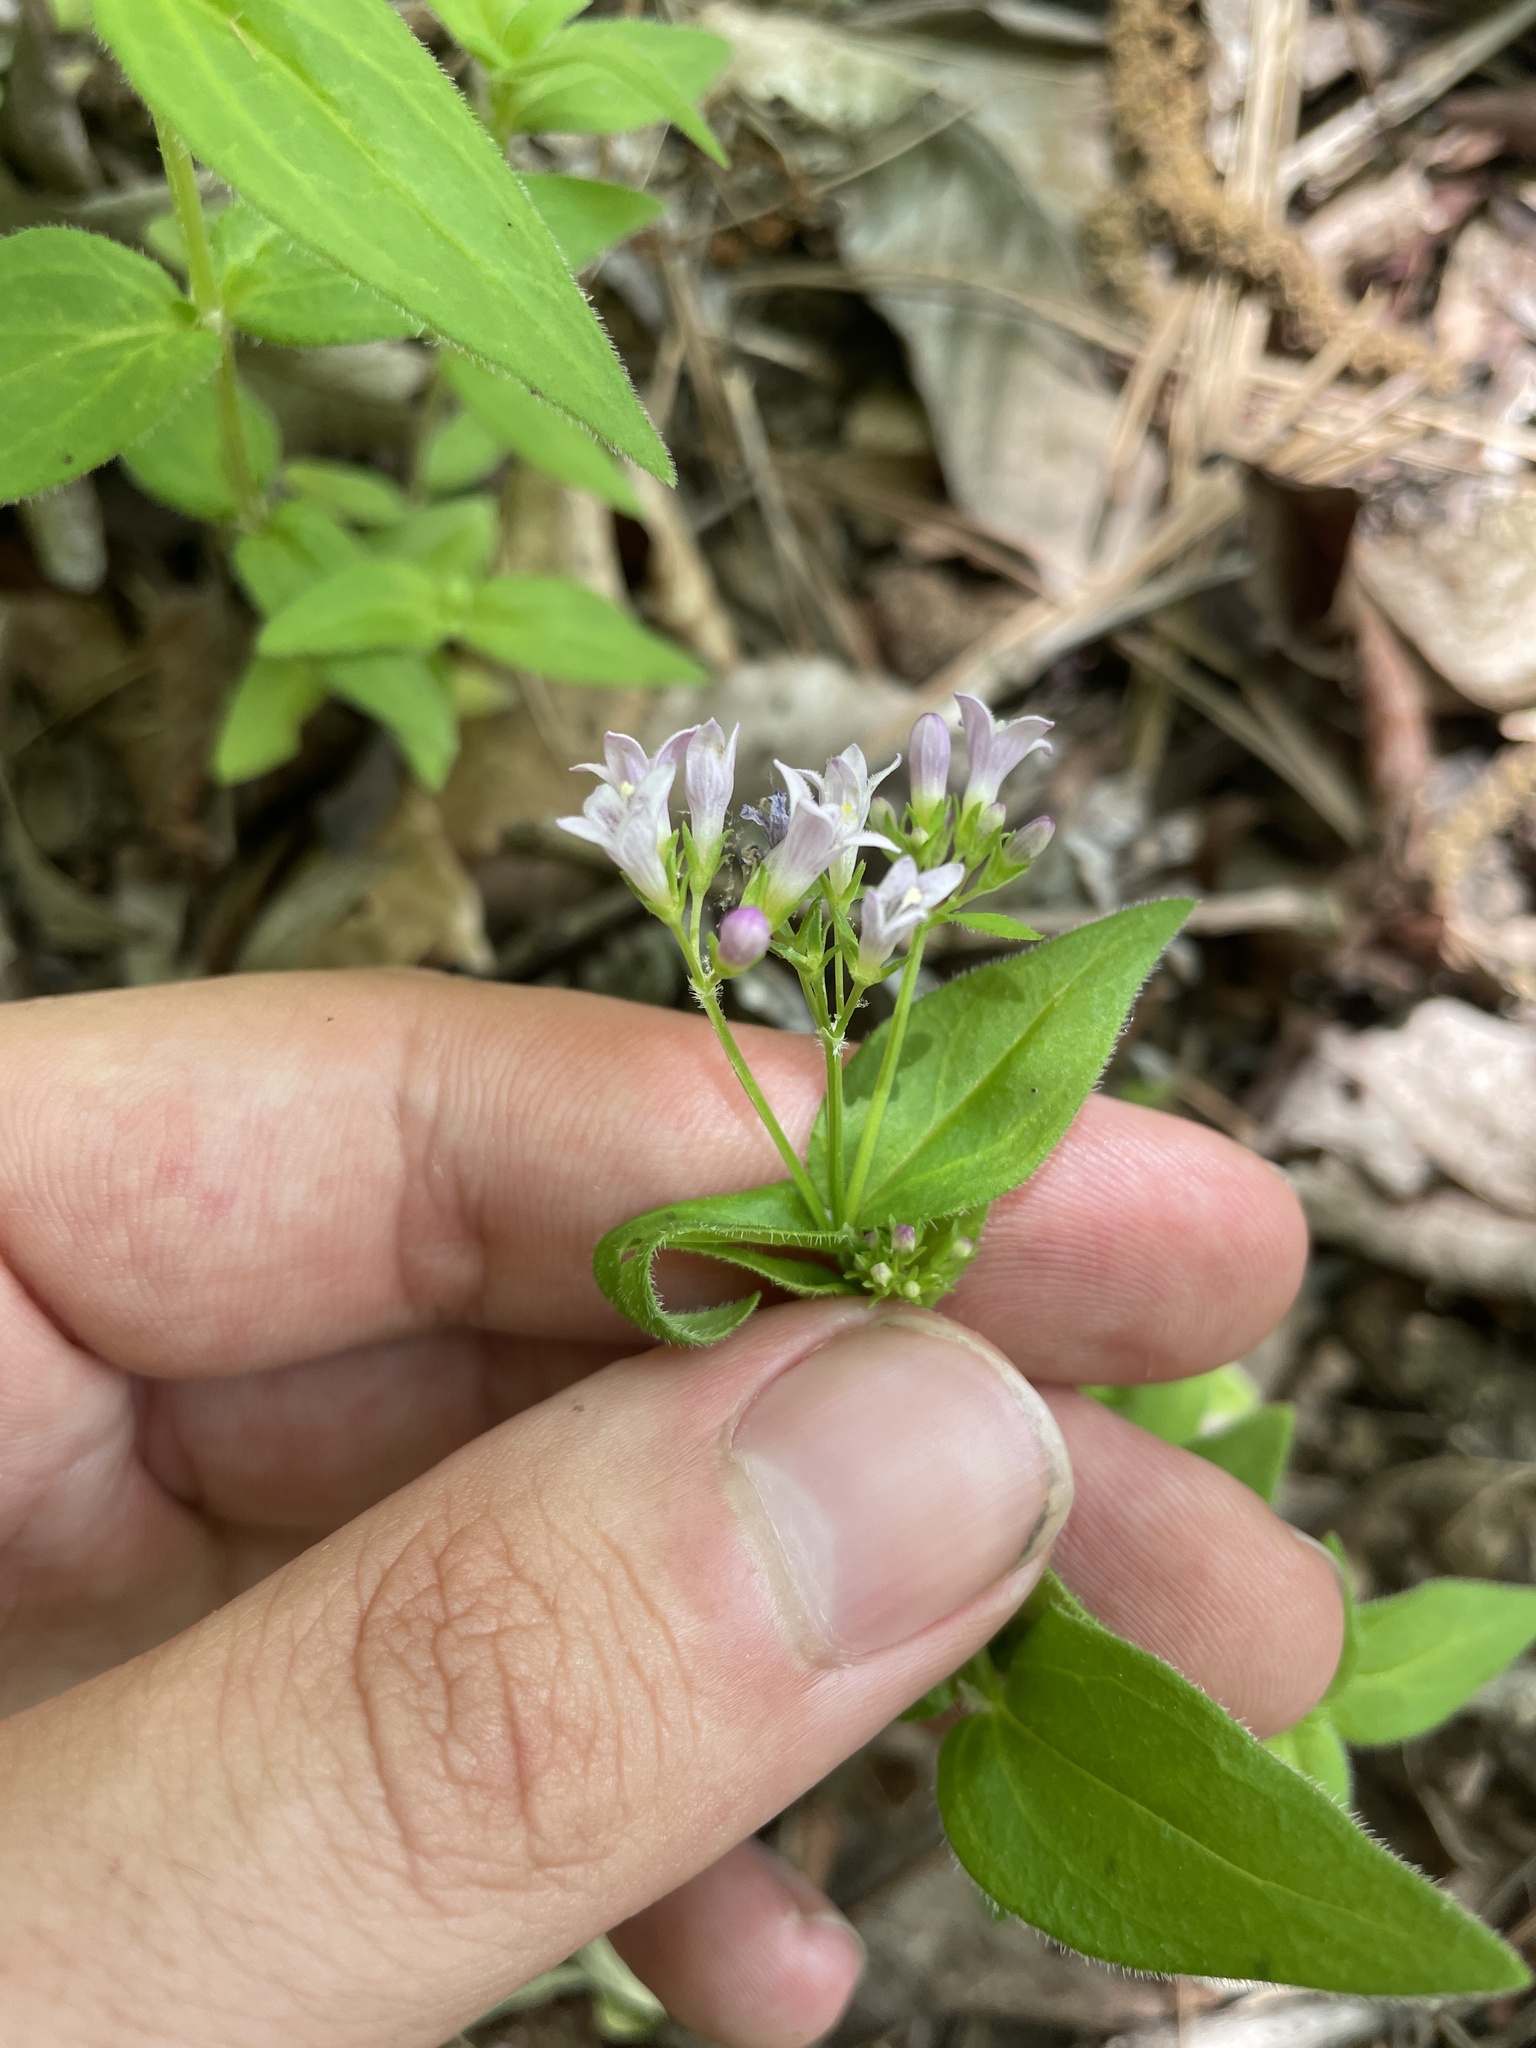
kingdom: Plantae
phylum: Tracheophyta
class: Magnoliopsida
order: Gentianales
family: Rubiaceae
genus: Houstonia
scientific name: Houstonia purpurea
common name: Summer bluet
